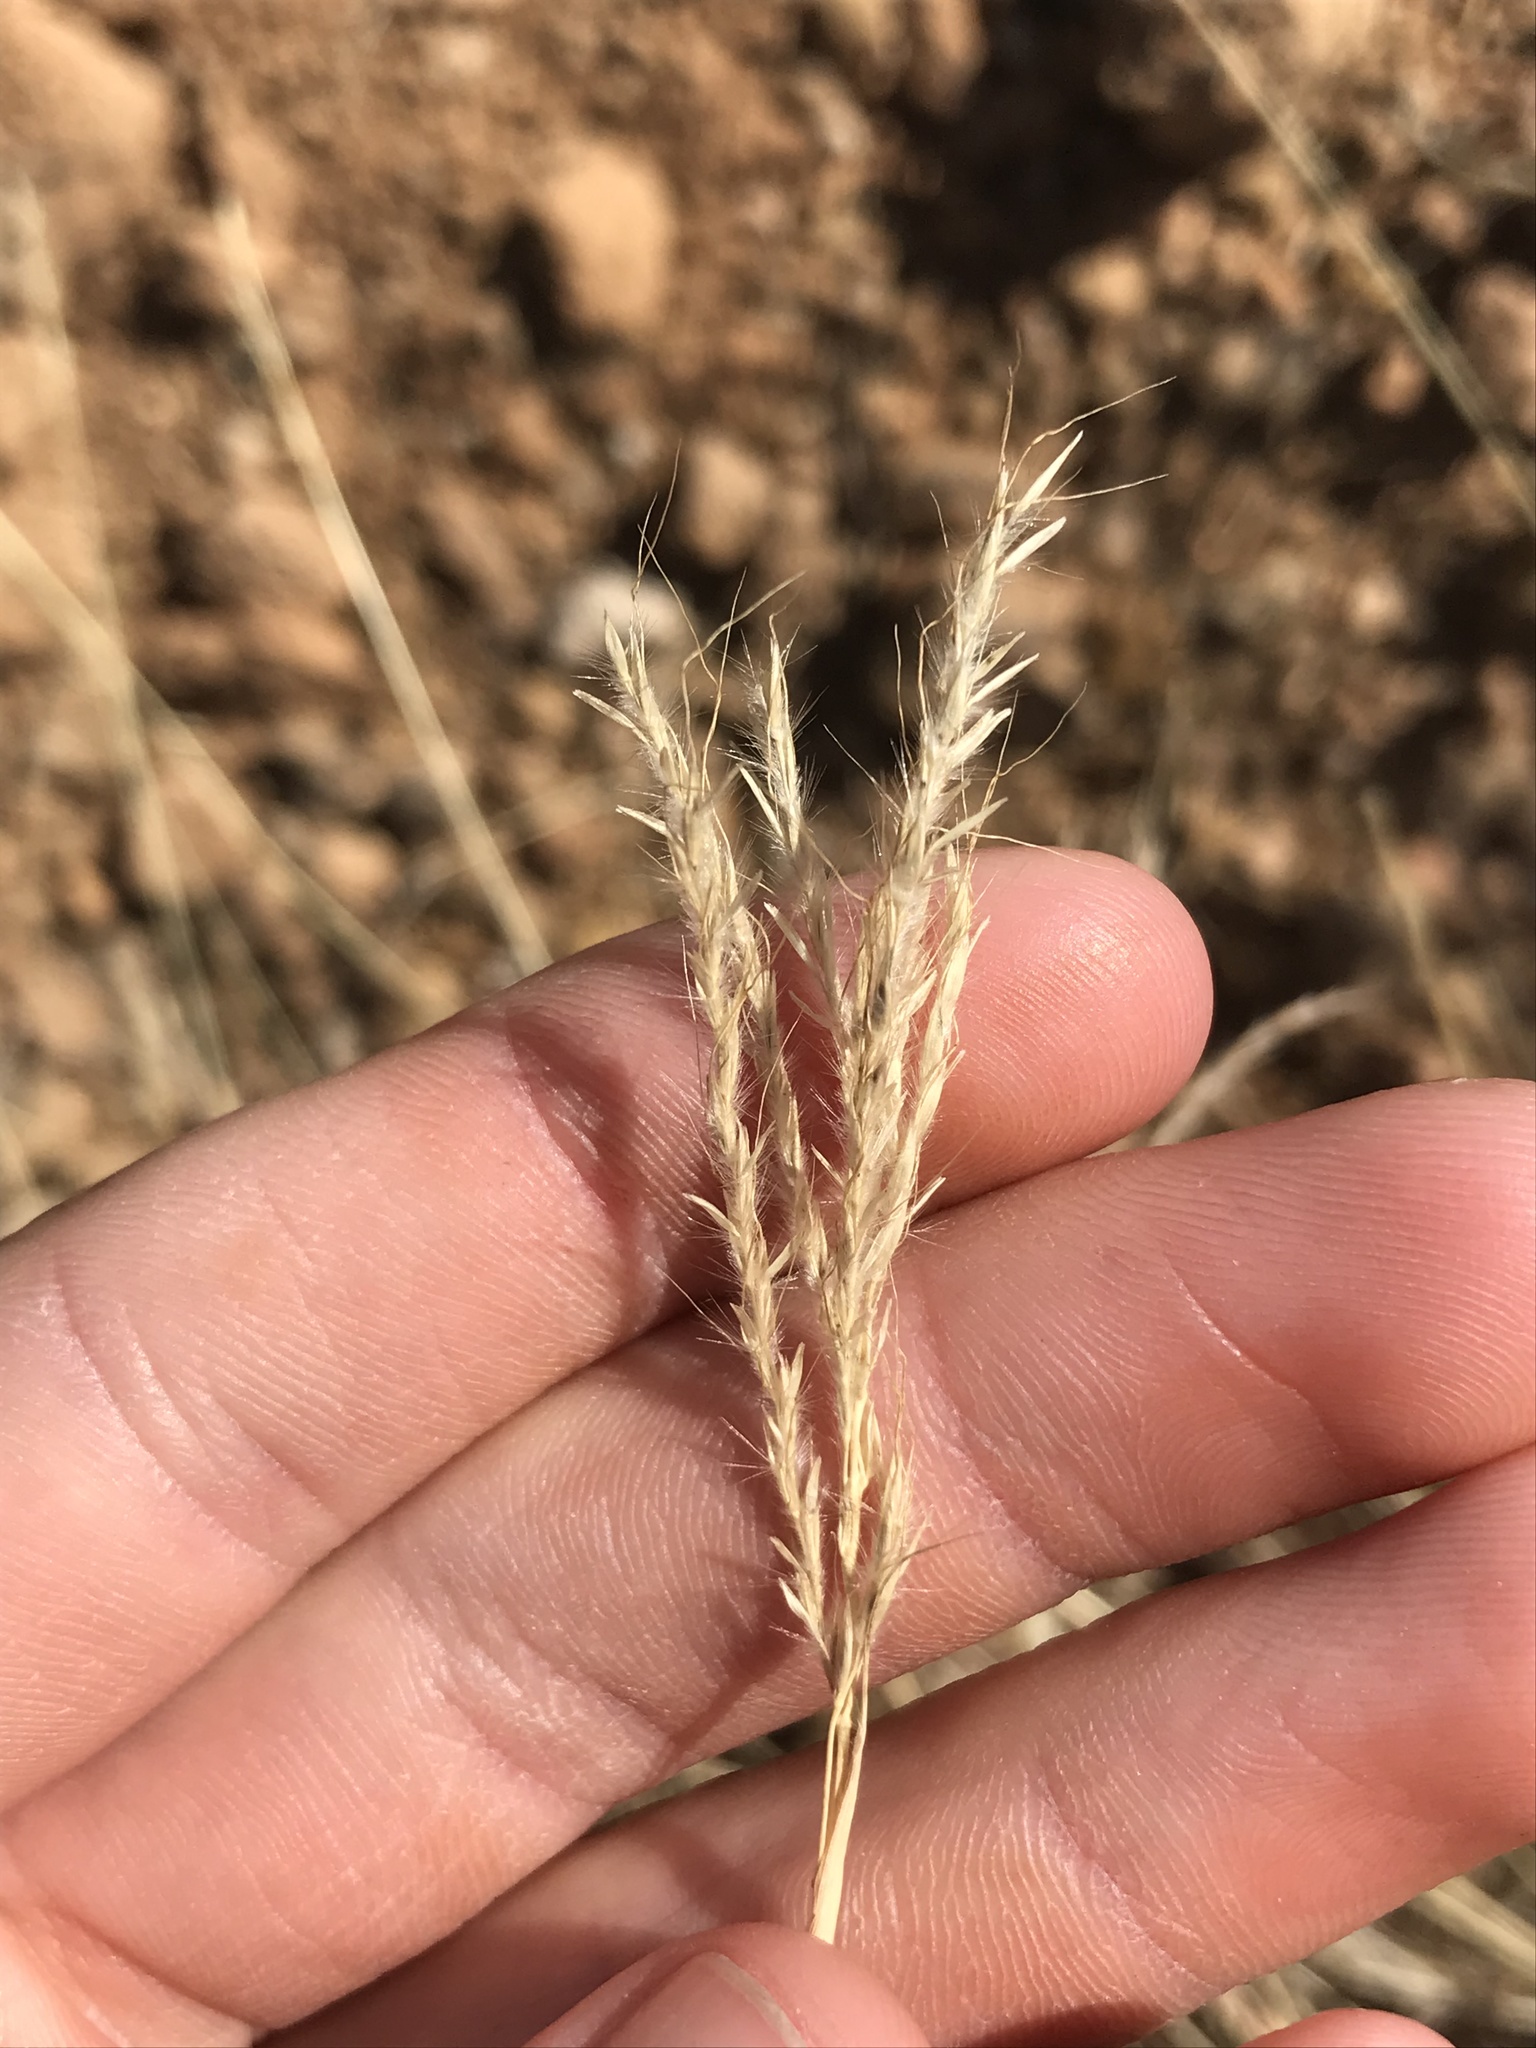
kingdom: Plantae
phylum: Tracheophyta
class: Liliopsida
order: Poales
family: Poaceae
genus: Bothriochloa
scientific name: Bothriochloa ischaemum
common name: Yellow bluestem
